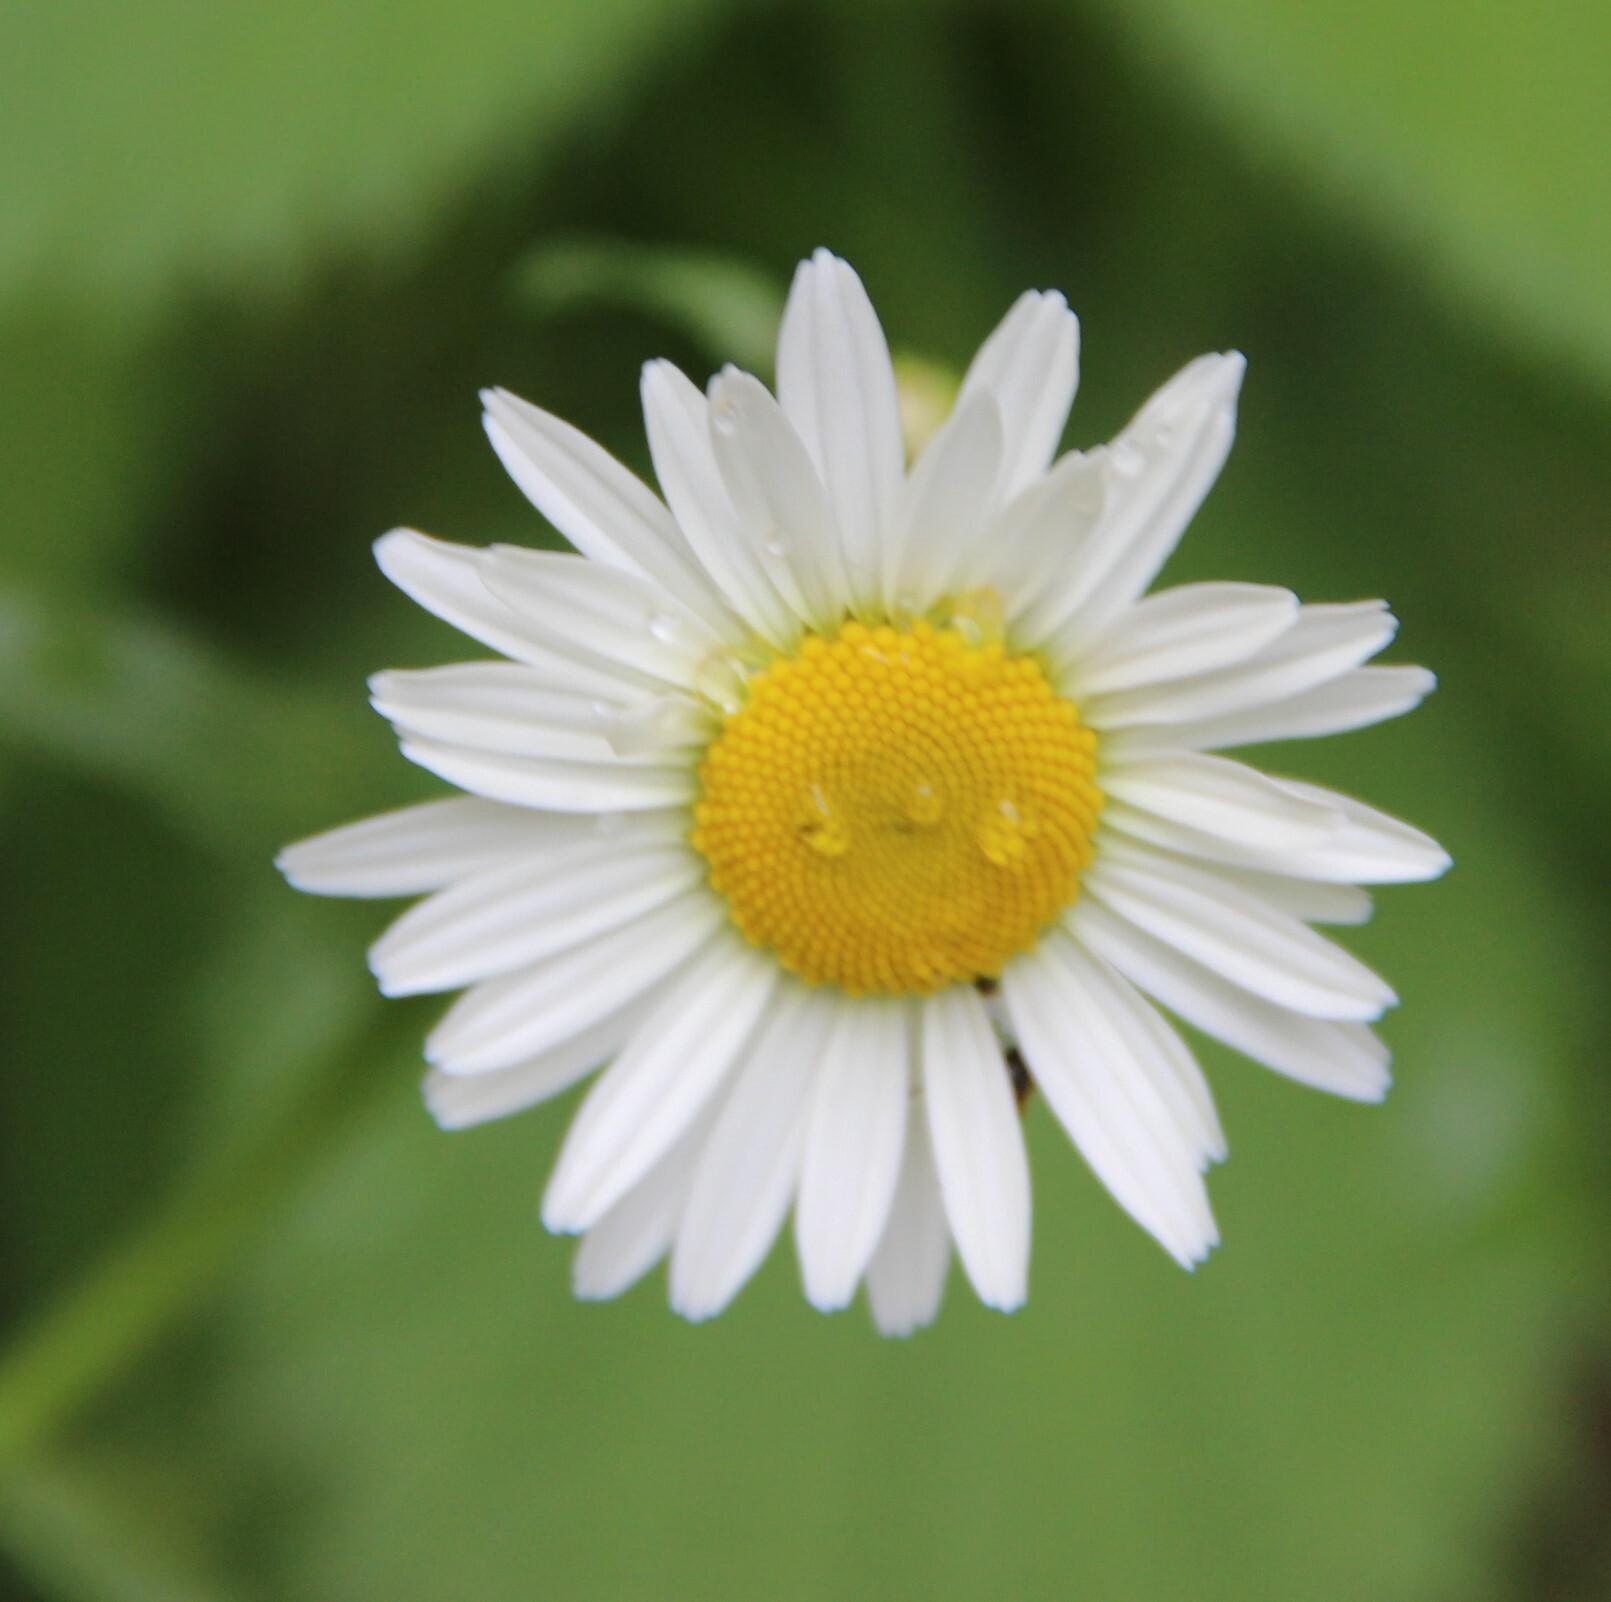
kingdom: Plantae
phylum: Tracheophyta
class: Magnoliopsida
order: Asterales
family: Asteraceae
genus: Leucanthemum
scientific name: Leucanthemum vulgare
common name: Oxeye daisy
